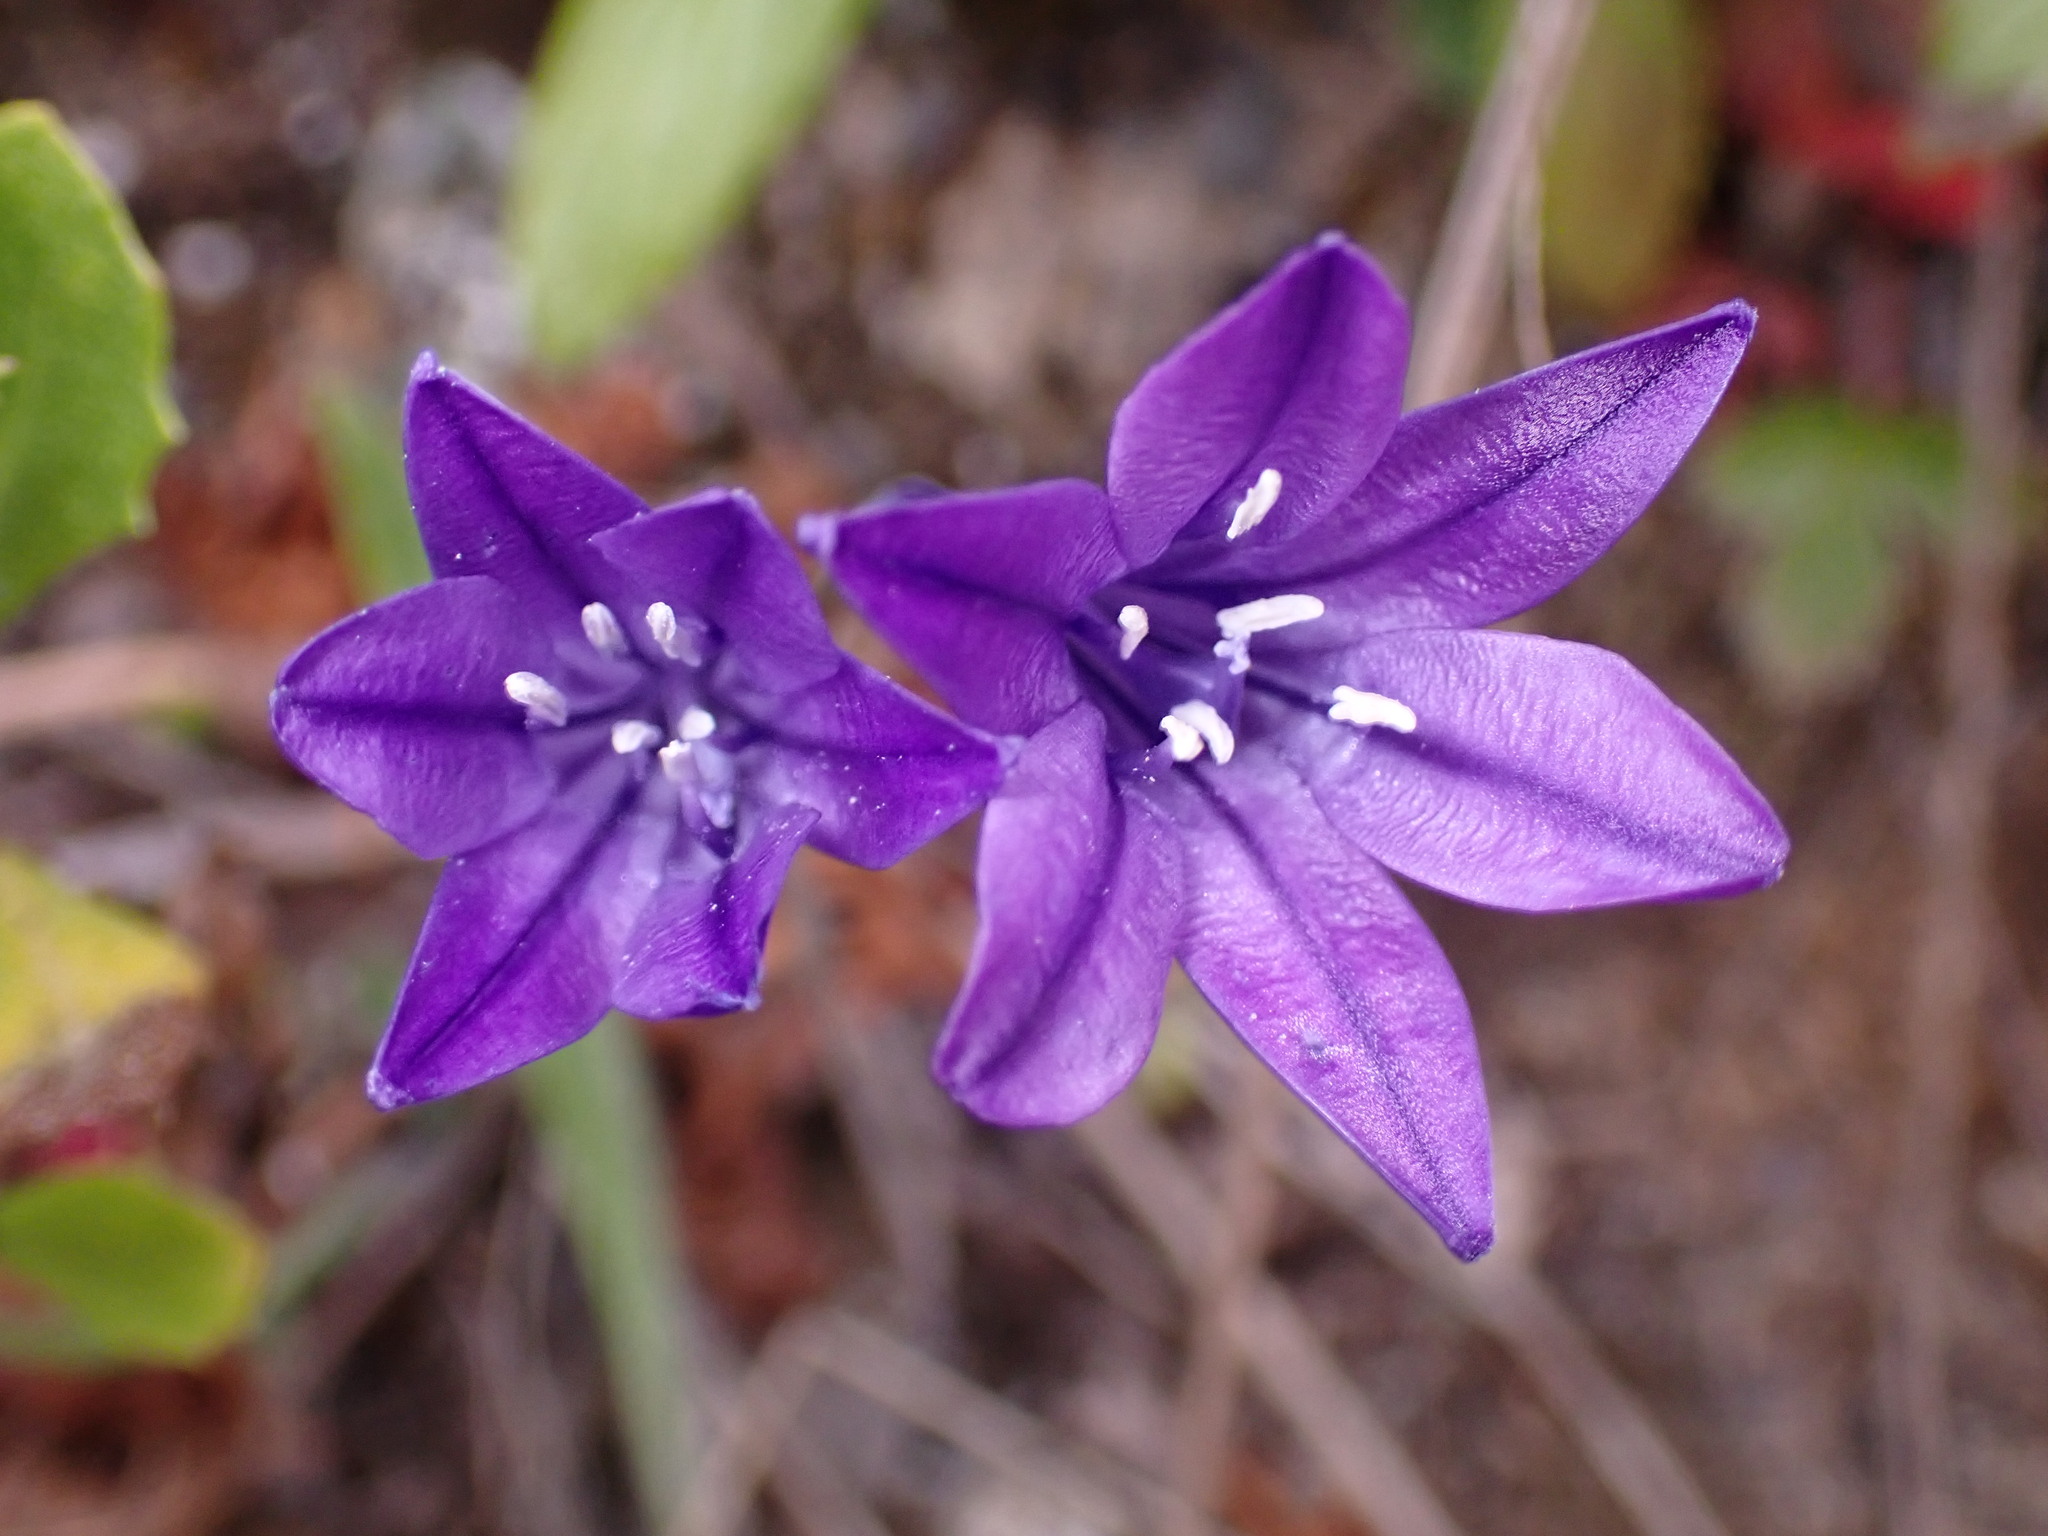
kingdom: Plantae
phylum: Tracheophyta
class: Liliopsida
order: Asparagales
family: Asparagaceae
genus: Triteleia
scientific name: Triteleia laxa
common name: Triplet-lily
